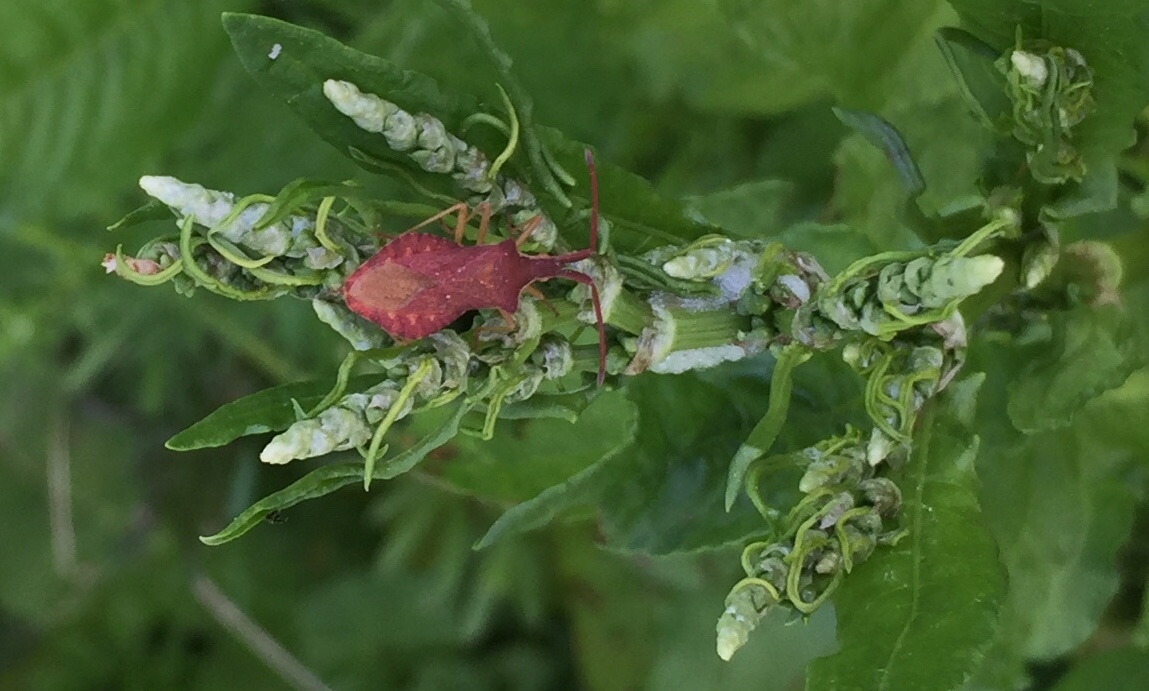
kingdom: Animalia
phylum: Arthropoda
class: Insecta
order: Hemiptera
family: Coreidae
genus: Haploprocta
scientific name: Haploprocta sulcicornis
